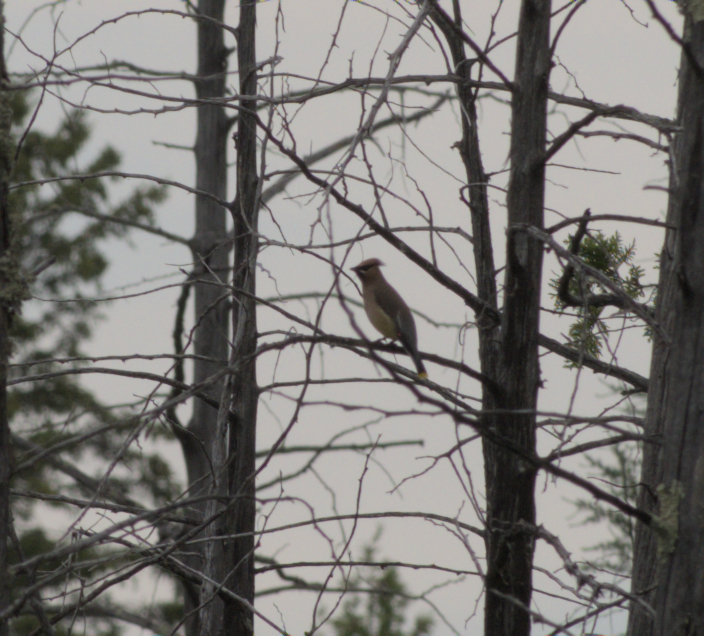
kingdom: Animalia
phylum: Chordata
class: Aves
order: Passeriformes
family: Bombycillidae
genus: Bombycilla
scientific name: Bombycilla cedrorum
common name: Cedar waxwing
